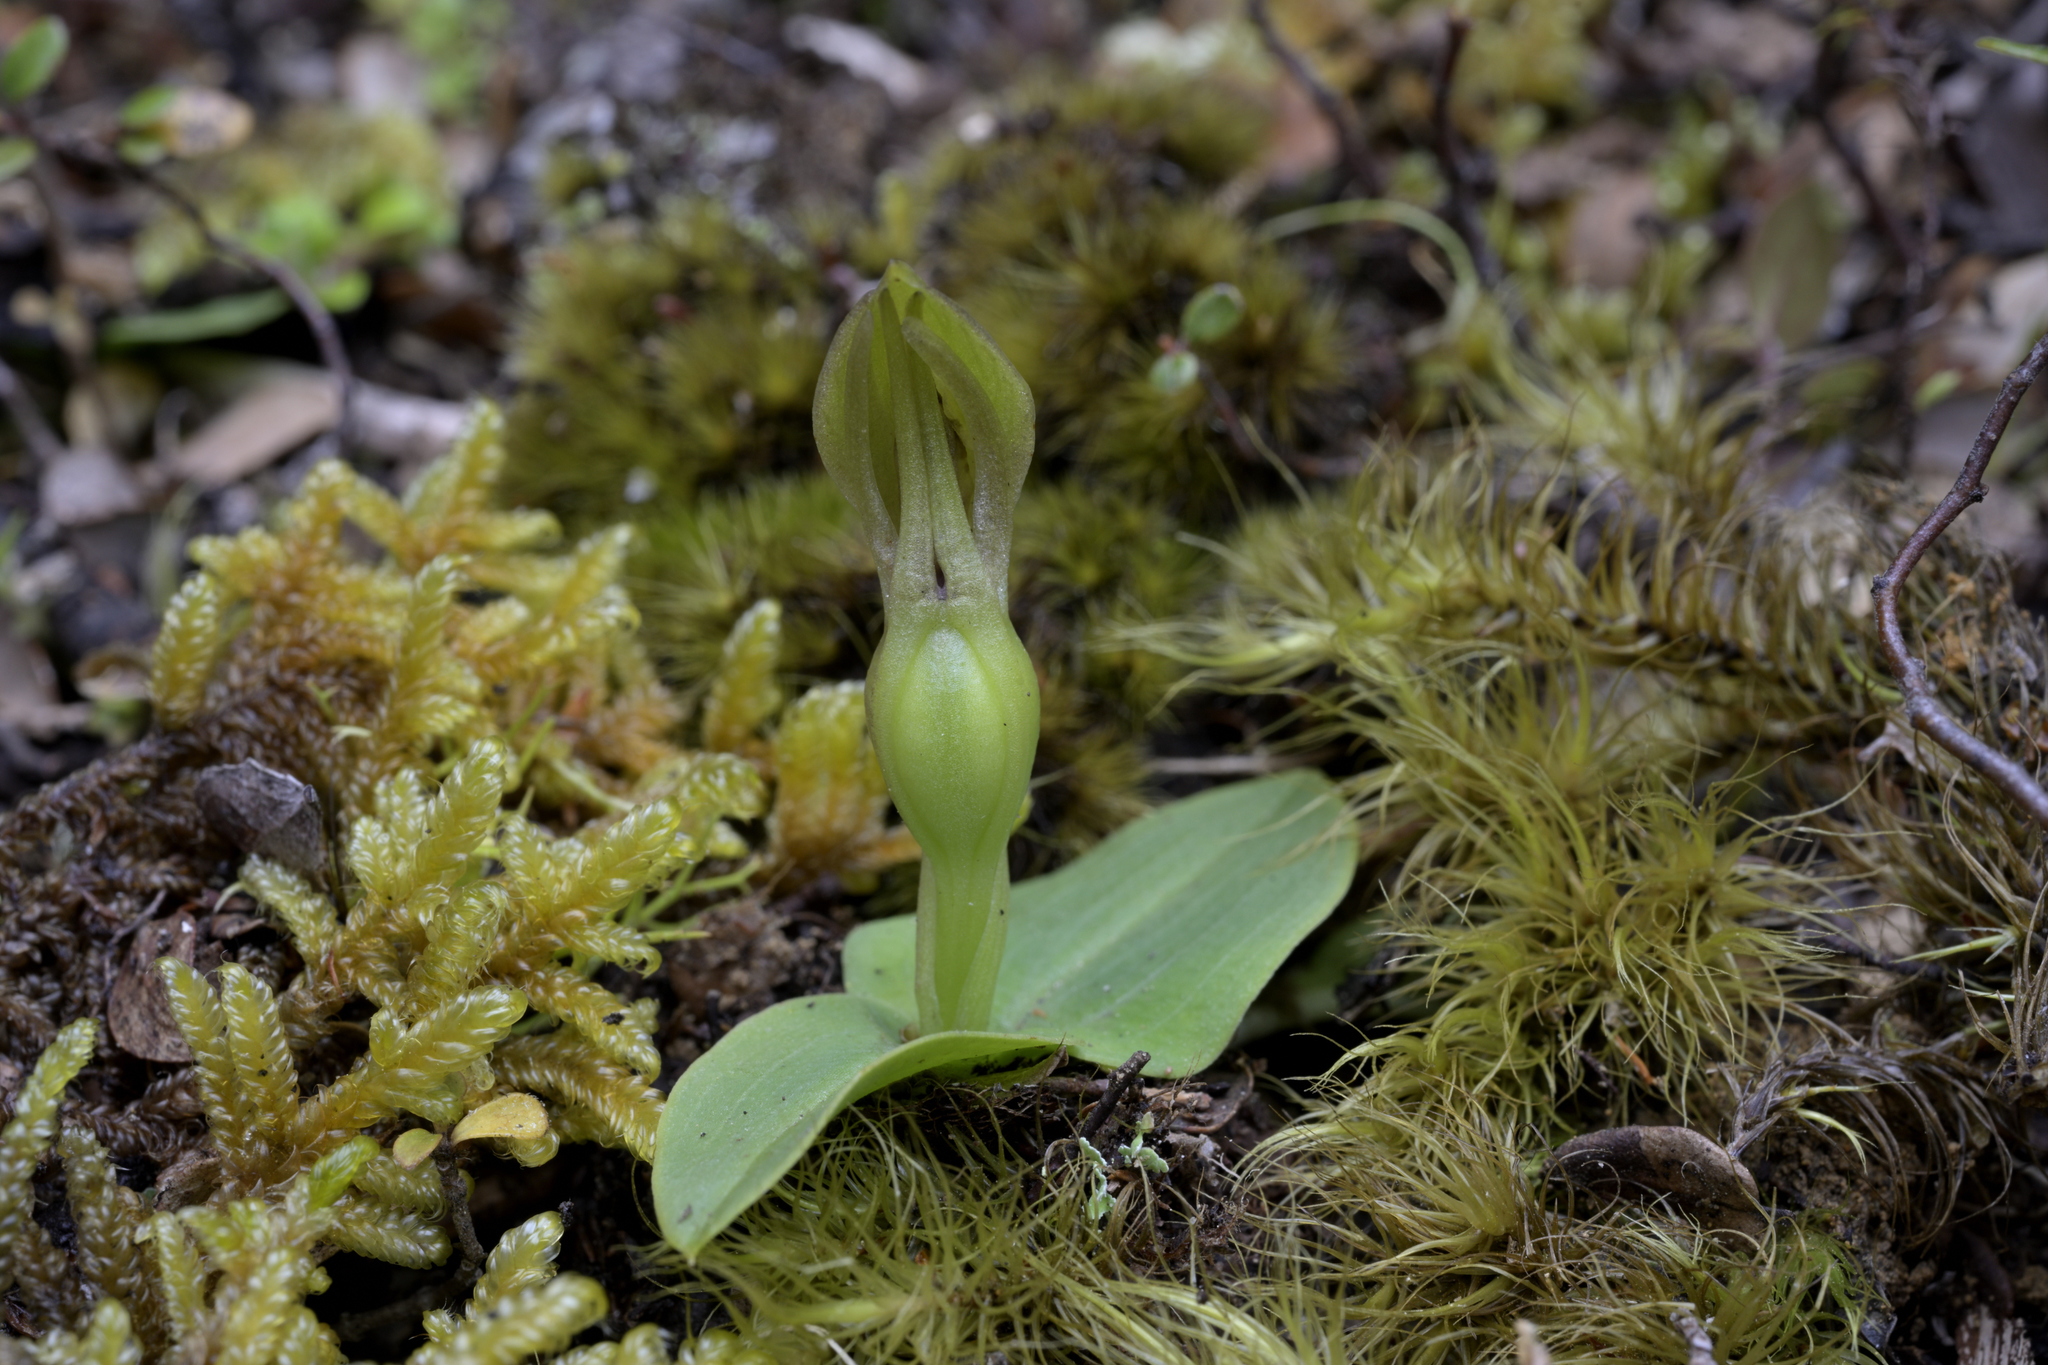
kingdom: Plantae
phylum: Tracheophyta
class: Liliopsida
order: Asparagales
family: Orchidaceae
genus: Chiloglottis
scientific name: Chiloglottis cornuta
